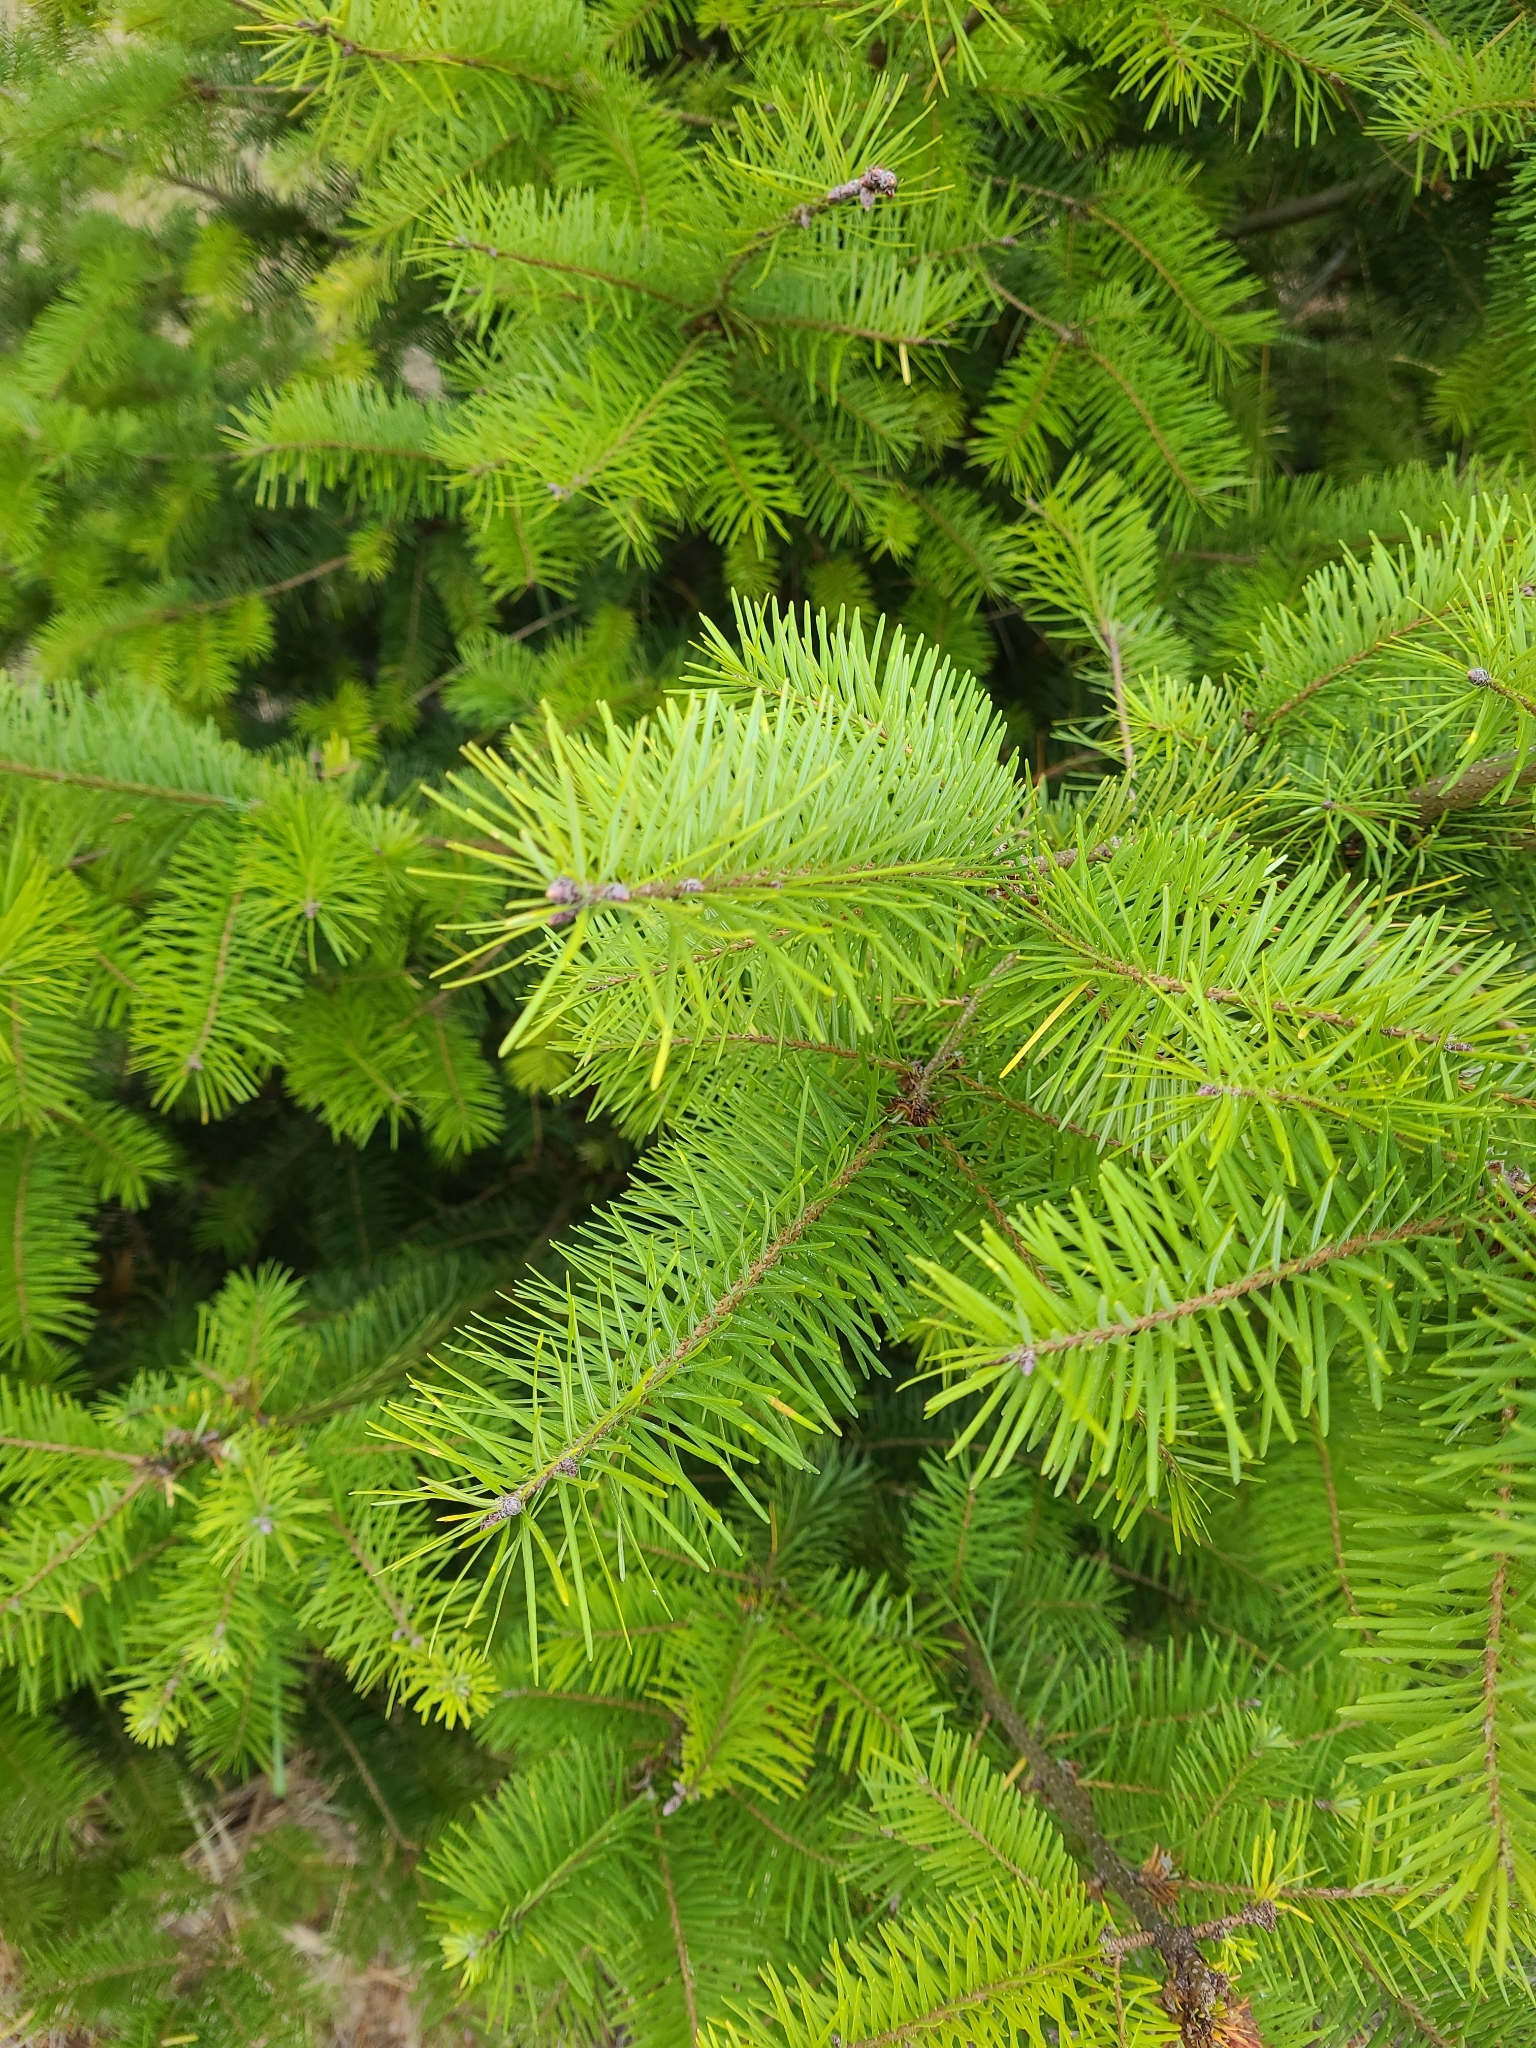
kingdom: Plantae
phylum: Tracheophyta
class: Pinopsida
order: Pinales
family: Pinaceae
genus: Pseudotsuga
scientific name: Pseudotsuga menziesii
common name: Douglas fir
